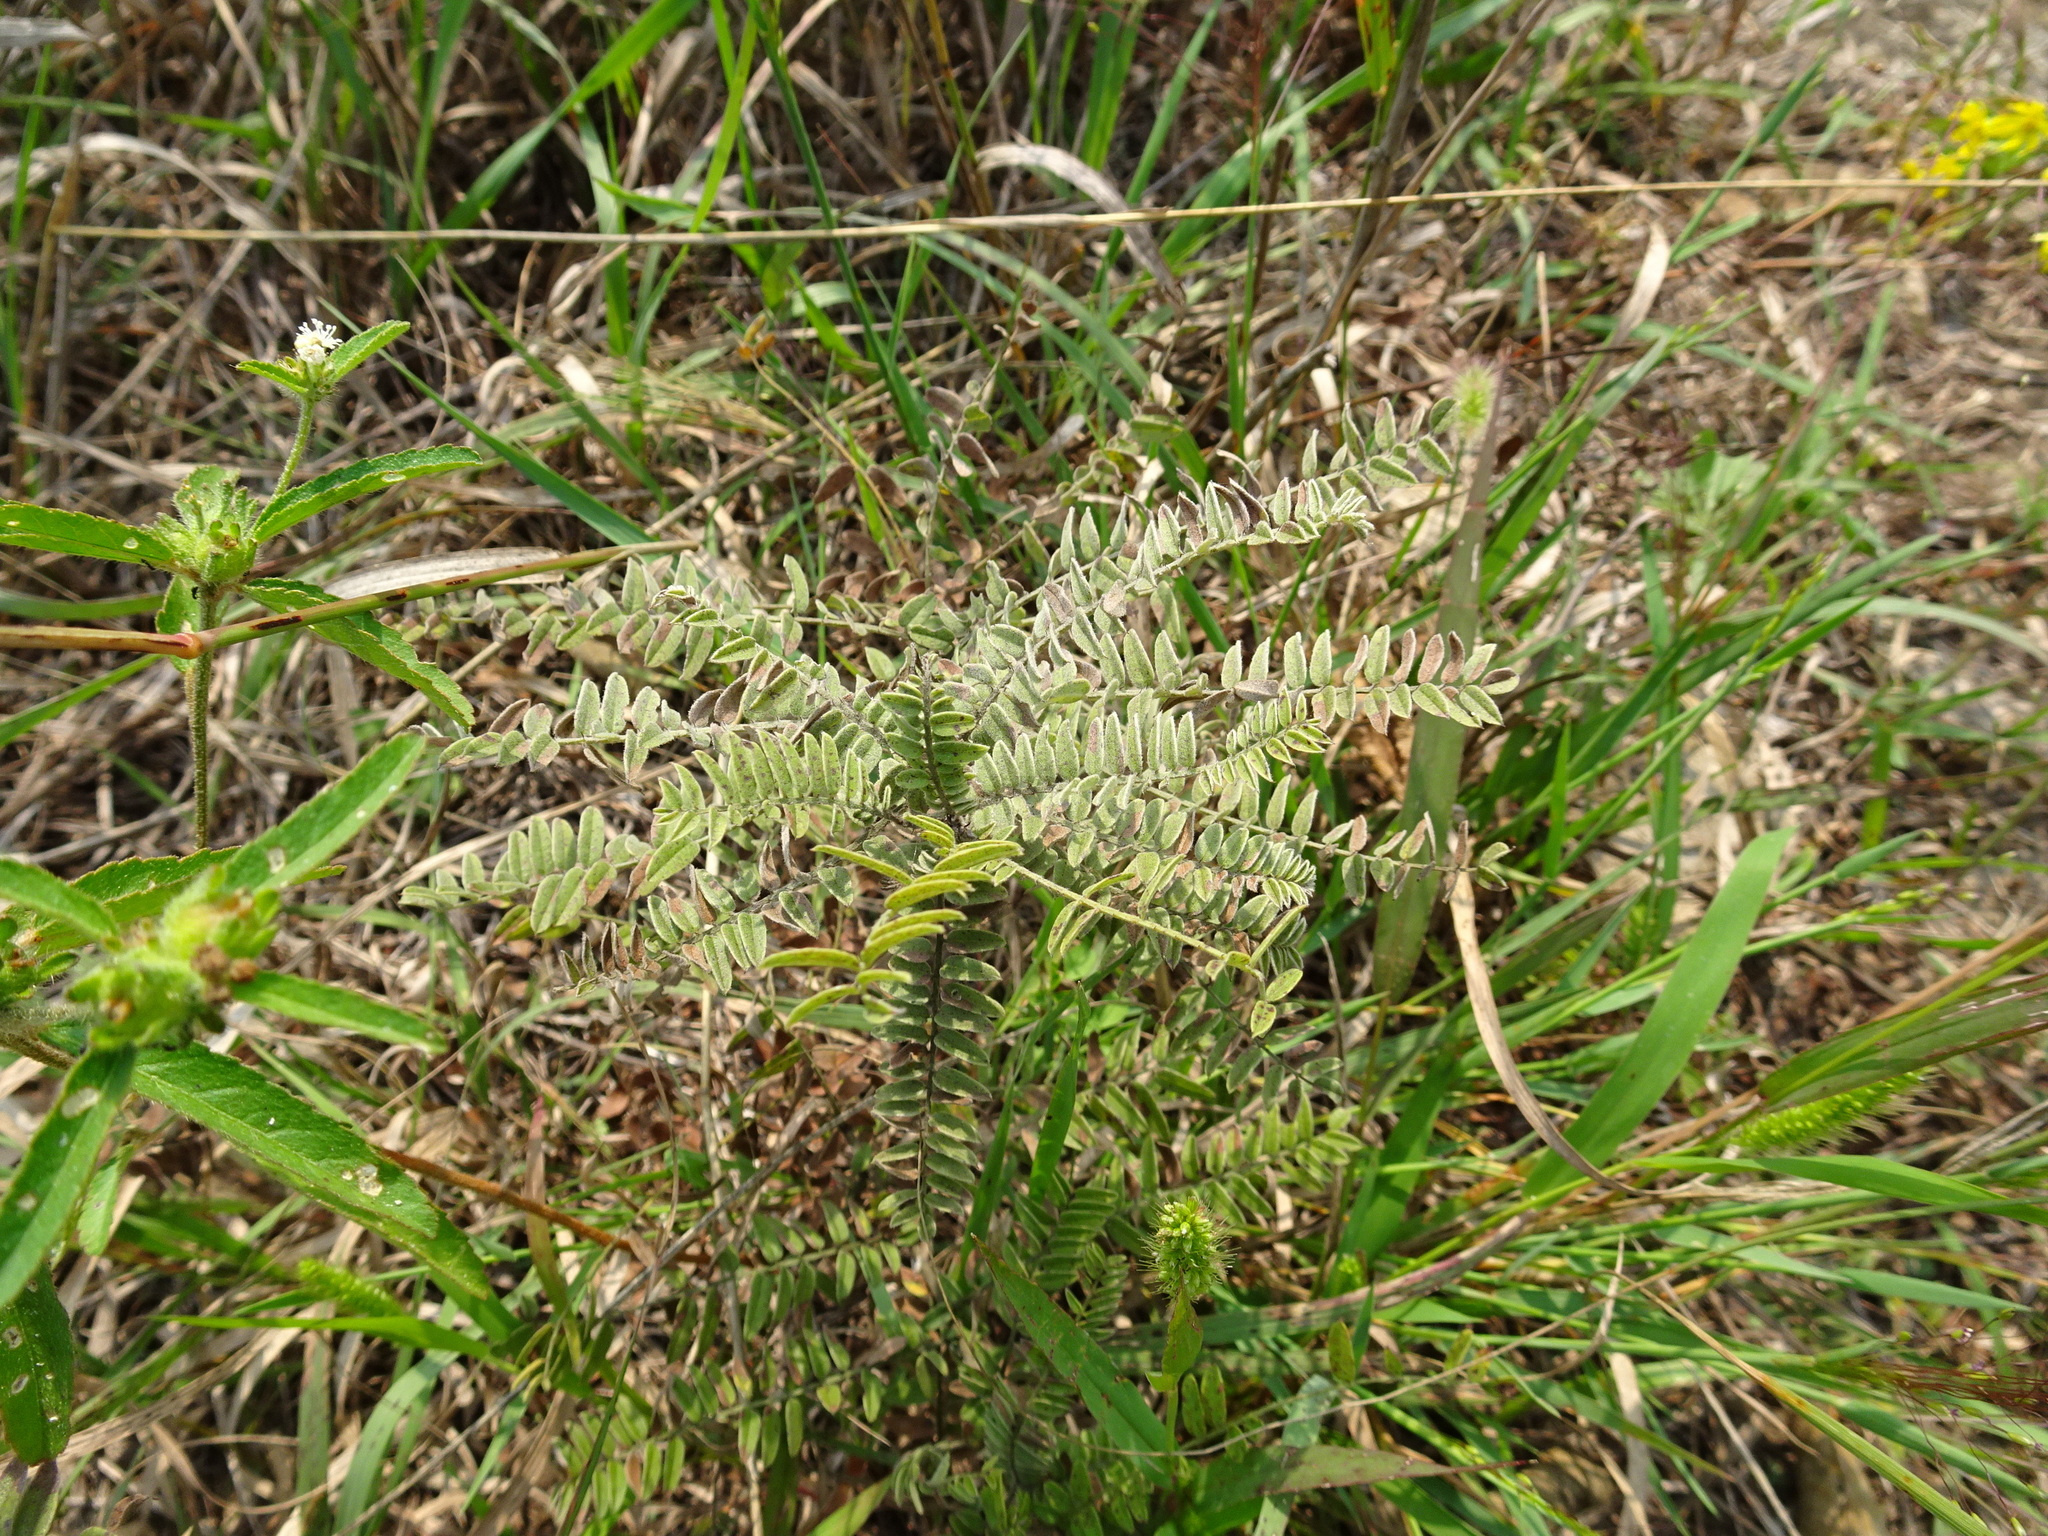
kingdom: Plantae
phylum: Tracheophyta
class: Magnoliopsida
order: Fabales
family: Fabaceae
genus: Amorpha
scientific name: Amorpha canescens
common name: Leadplant
